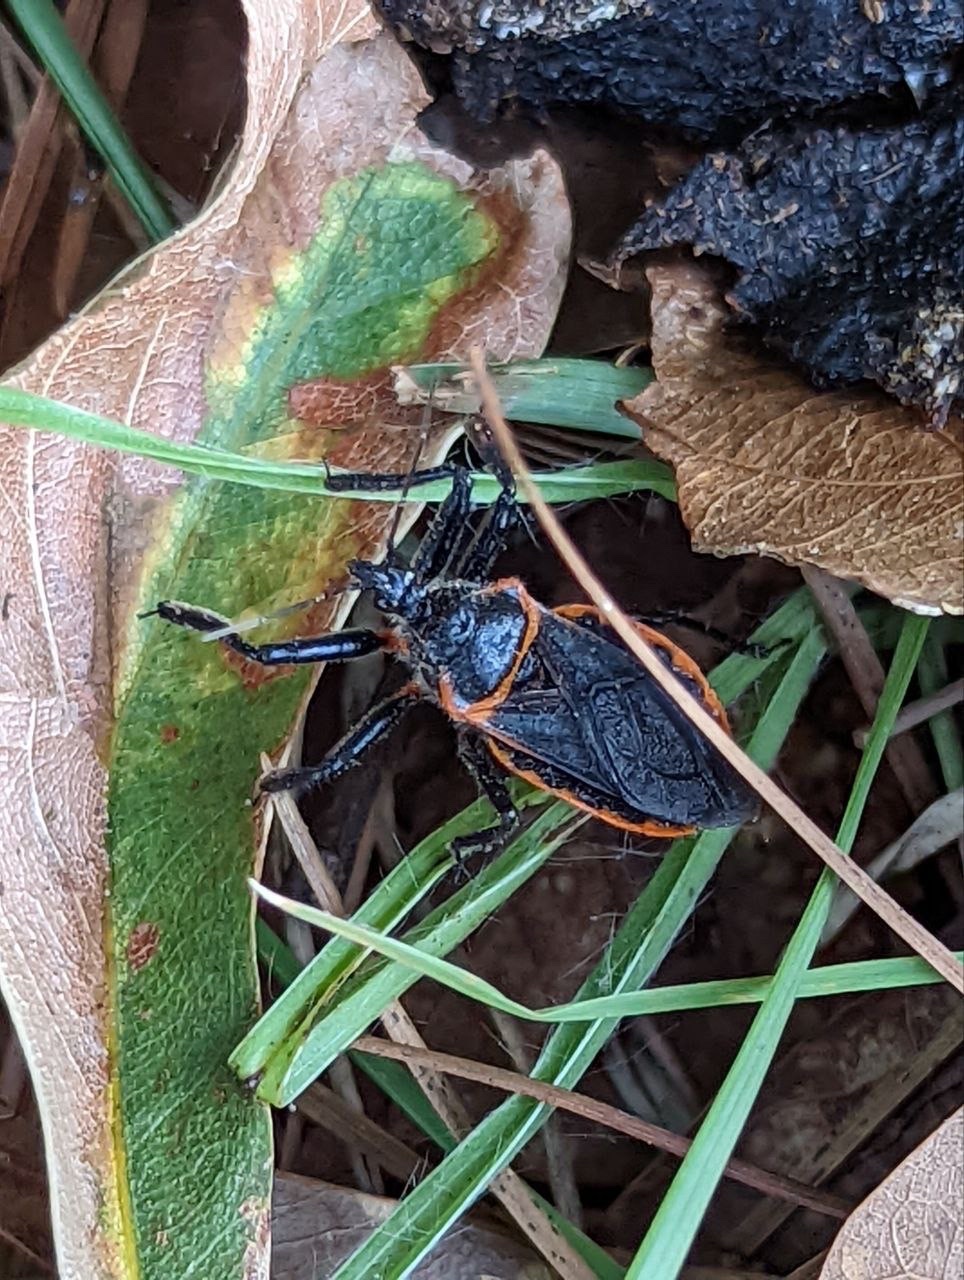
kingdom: Animalia
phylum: Arthropoda
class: Insecta
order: Hemiptera
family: Reduviidae
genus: Apiomerus
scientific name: Apiomerus crassipes
